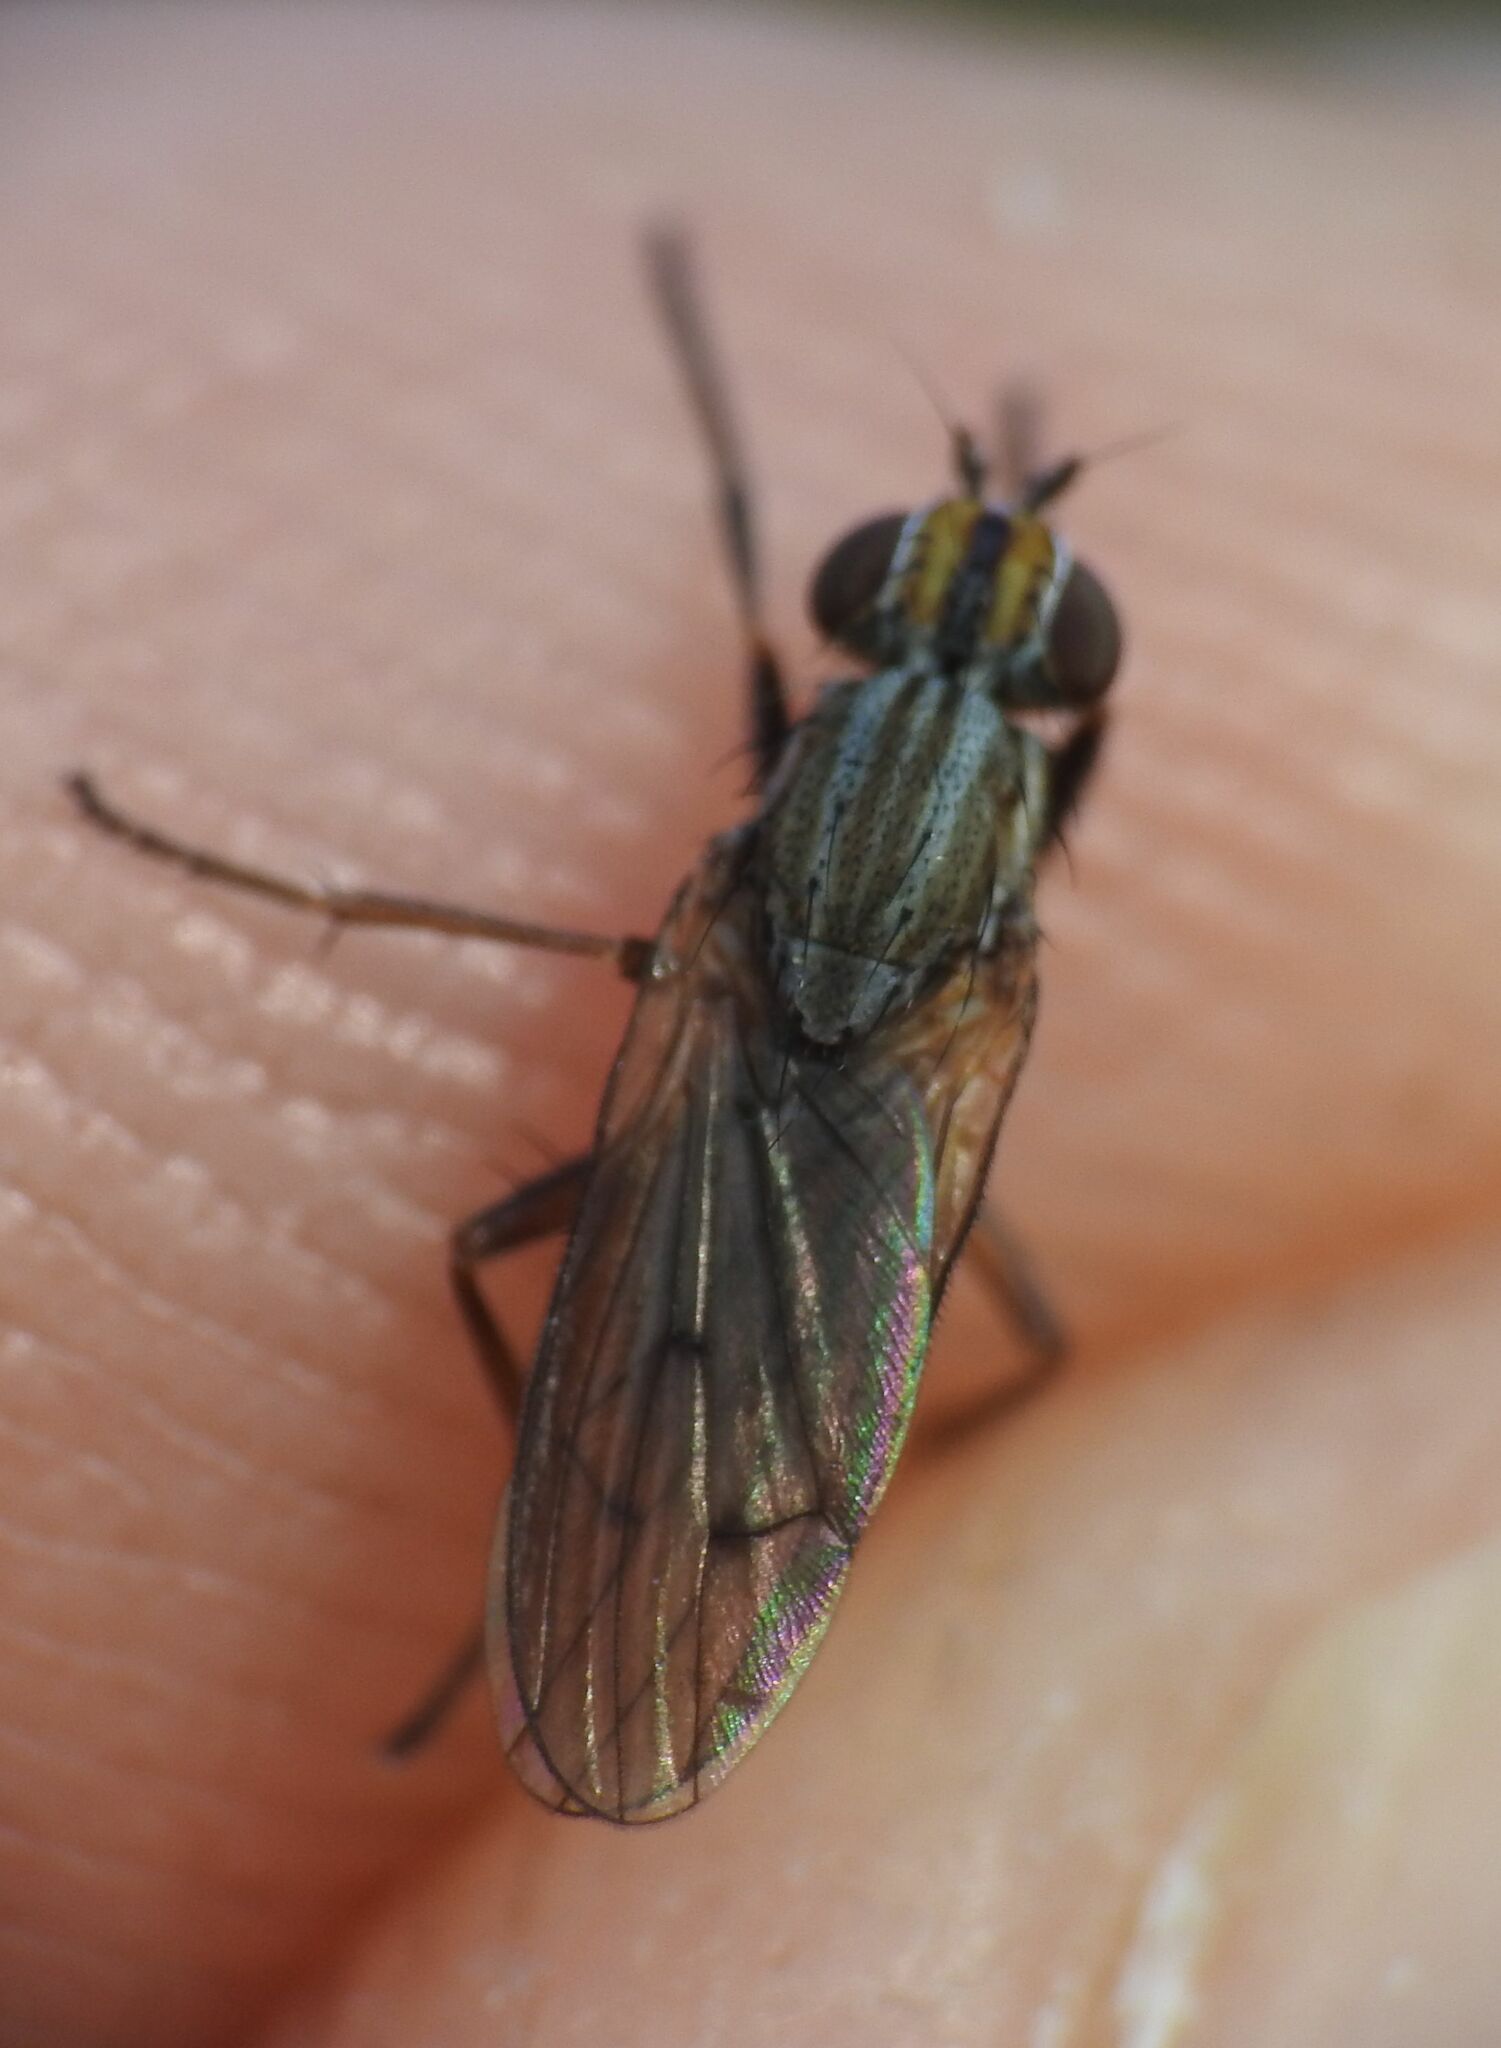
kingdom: Animalia
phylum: Arthropoda
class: Insecta
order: Diptera
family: Sciomyzidae
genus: Pherbellia
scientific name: Pherbellia cinerella
